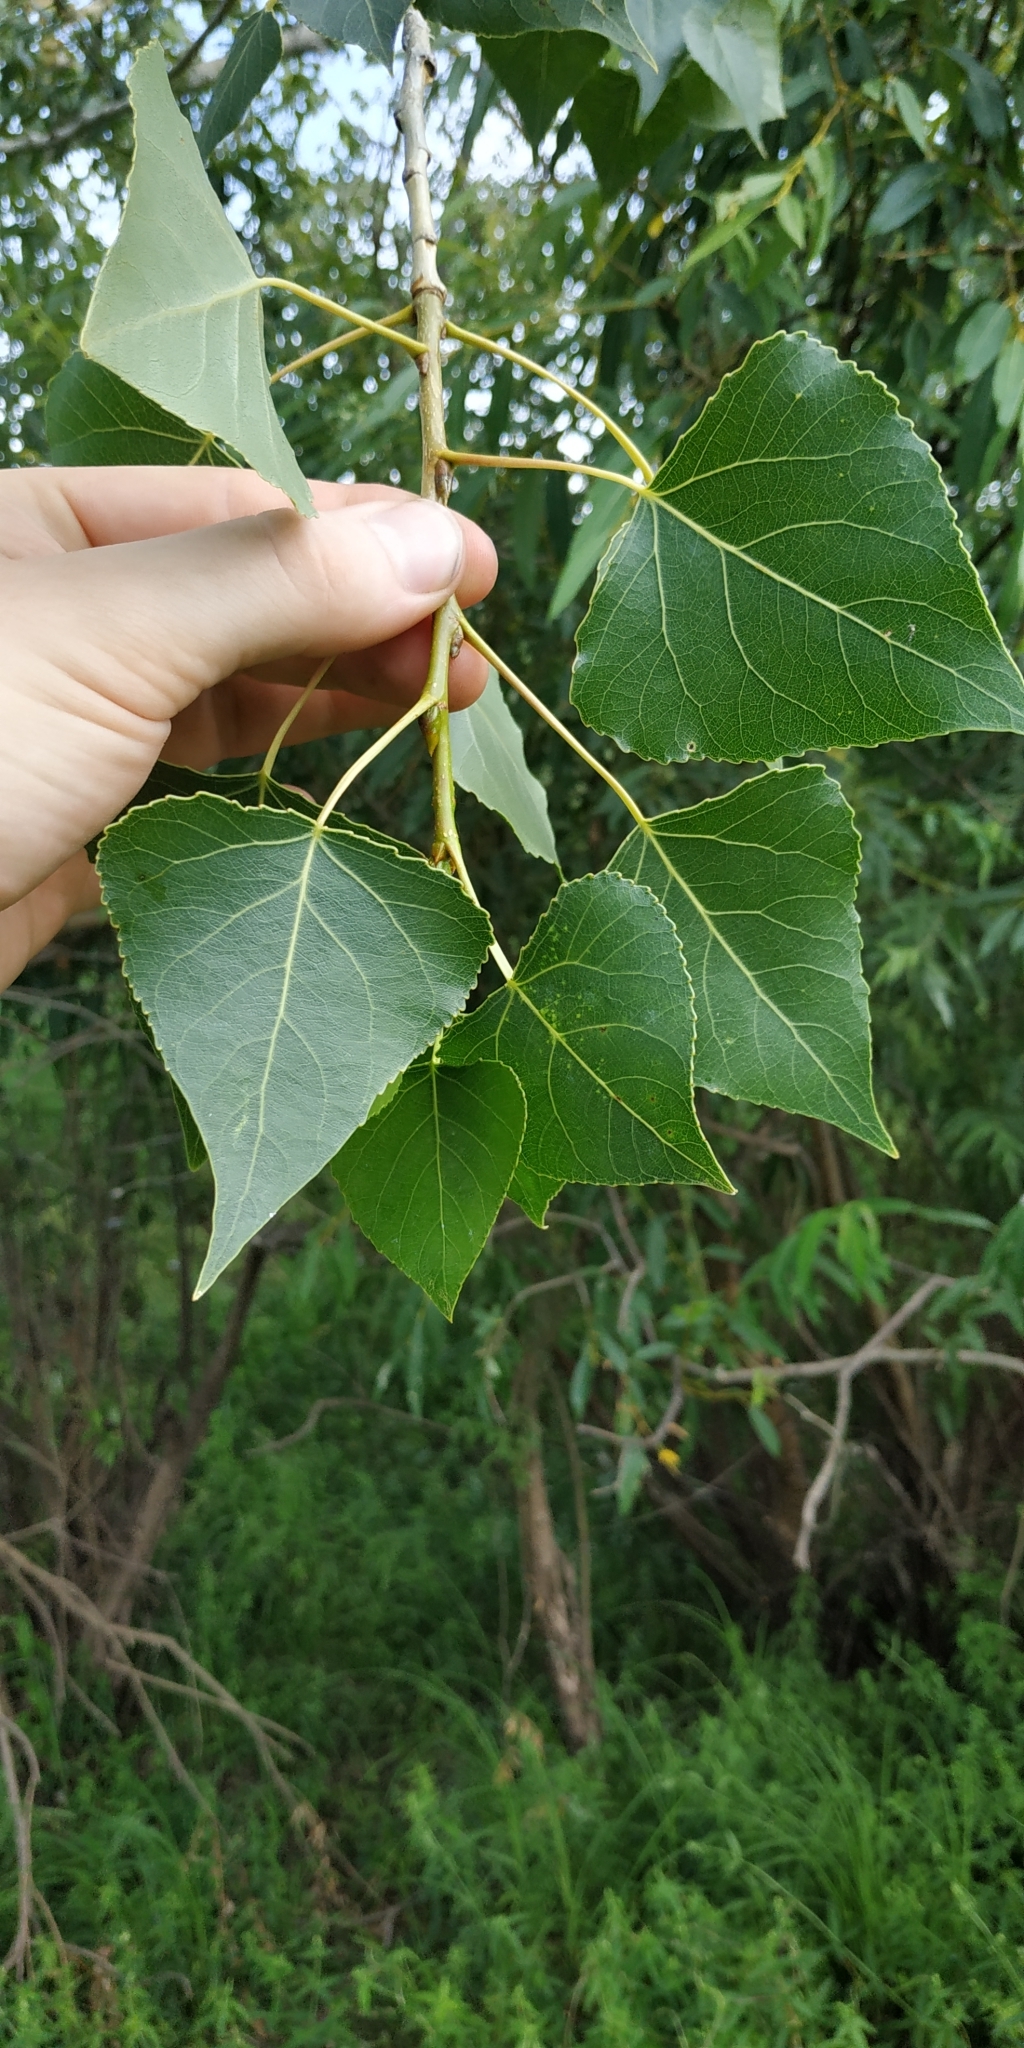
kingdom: Plantae
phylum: Tracheophyta
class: Magnoliopsida
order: Malpighiales
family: Salicaceae
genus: Populus
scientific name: Populus nigra
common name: Black poplar
